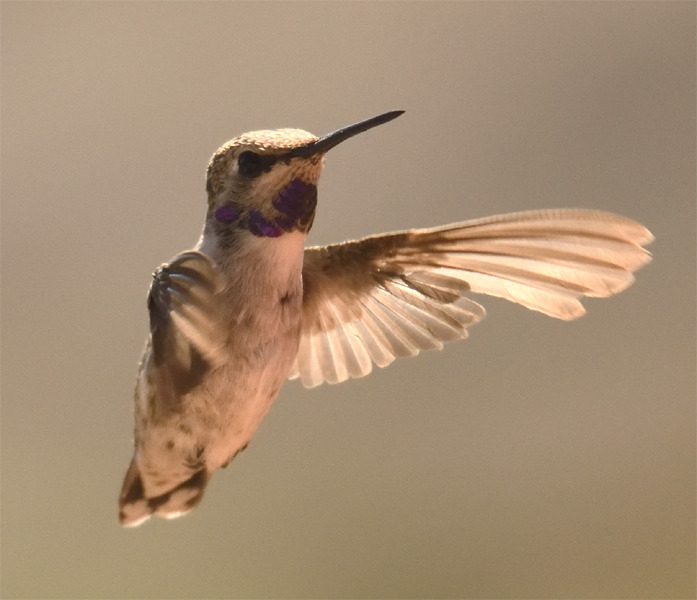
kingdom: Animalia
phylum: Chordata
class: Aves
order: Apodiformes
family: Trochilidae
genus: Calypte
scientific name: Calypte costae
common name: Costa's hummingbird
